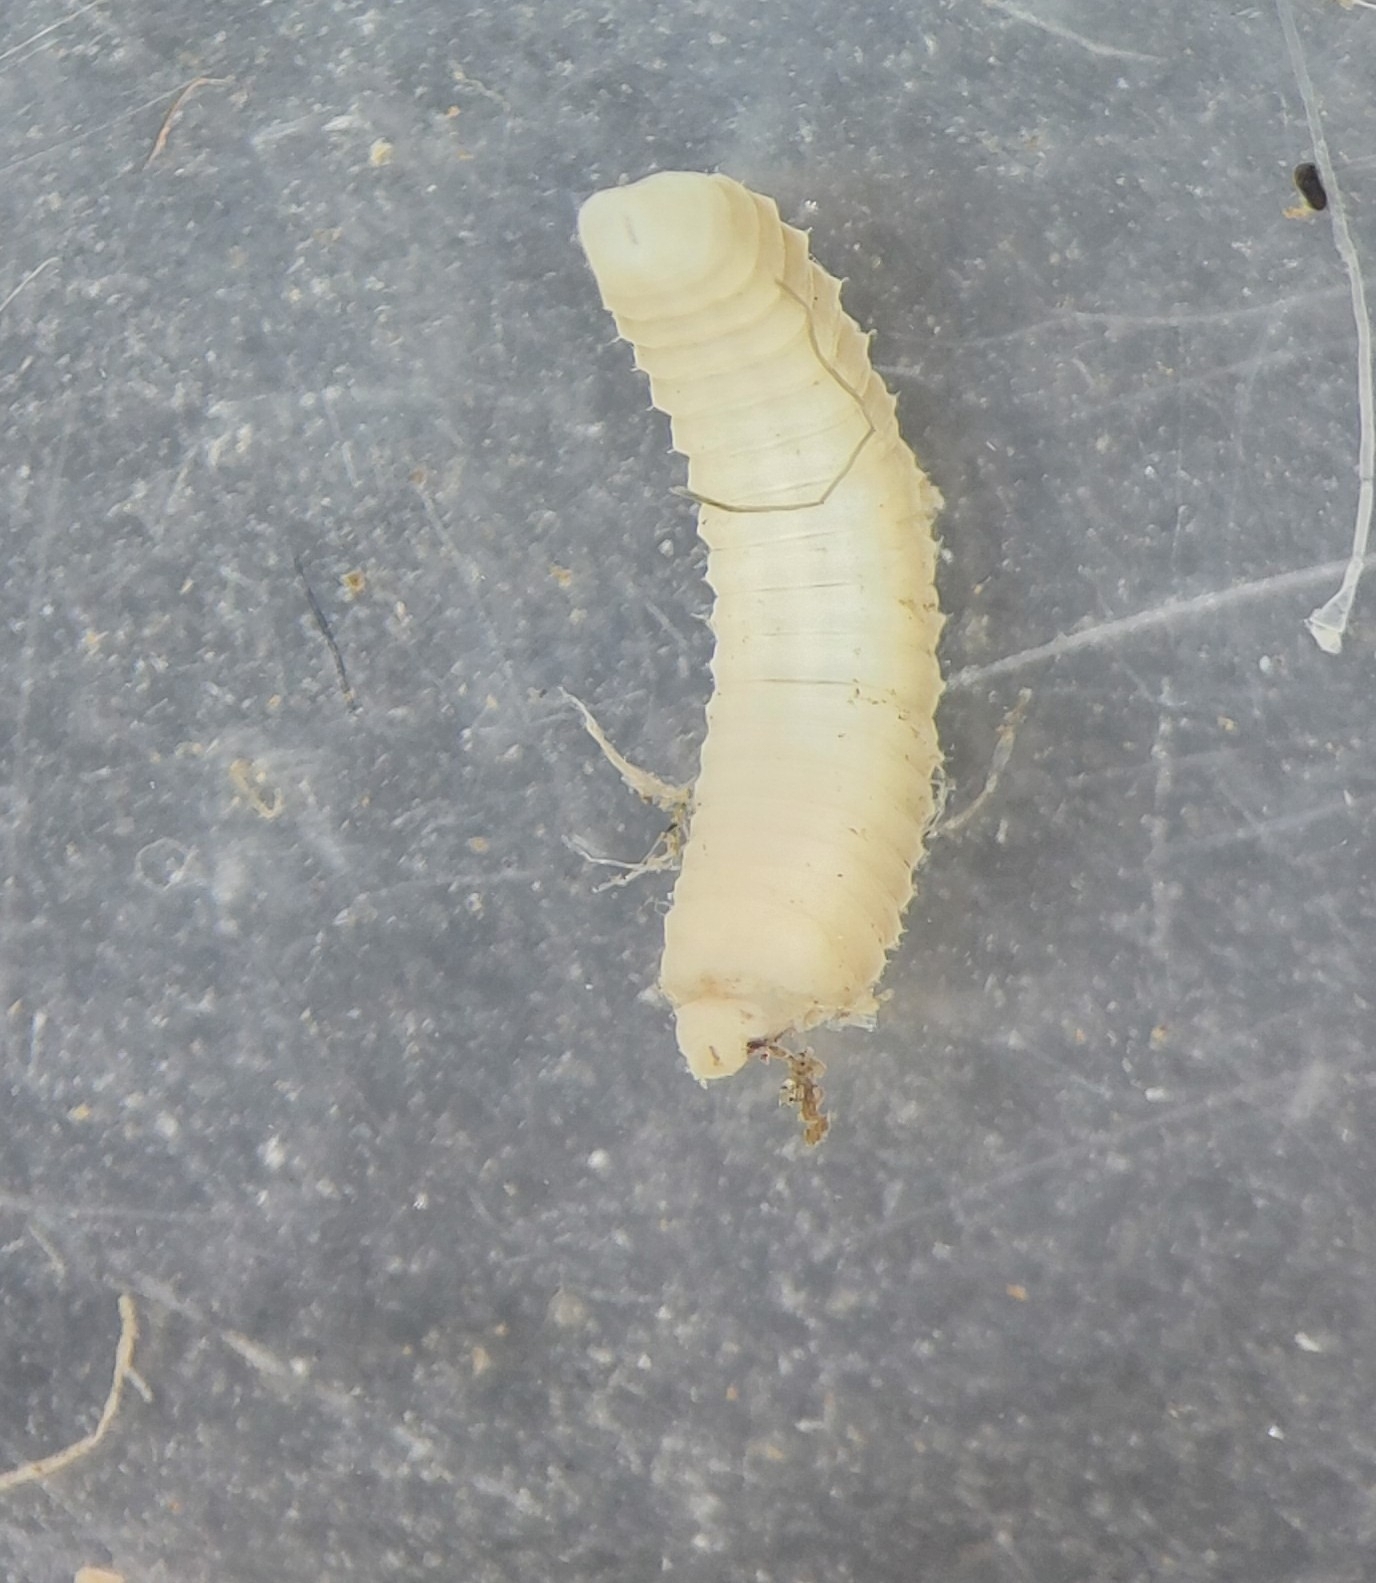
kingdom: Animalia
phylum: Annelida
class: Clitellata
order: Crassiclitellata
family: Lumbricidae
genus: Eiseniella
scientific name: Eiseniella tetraedra
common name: Square-tailed worm
